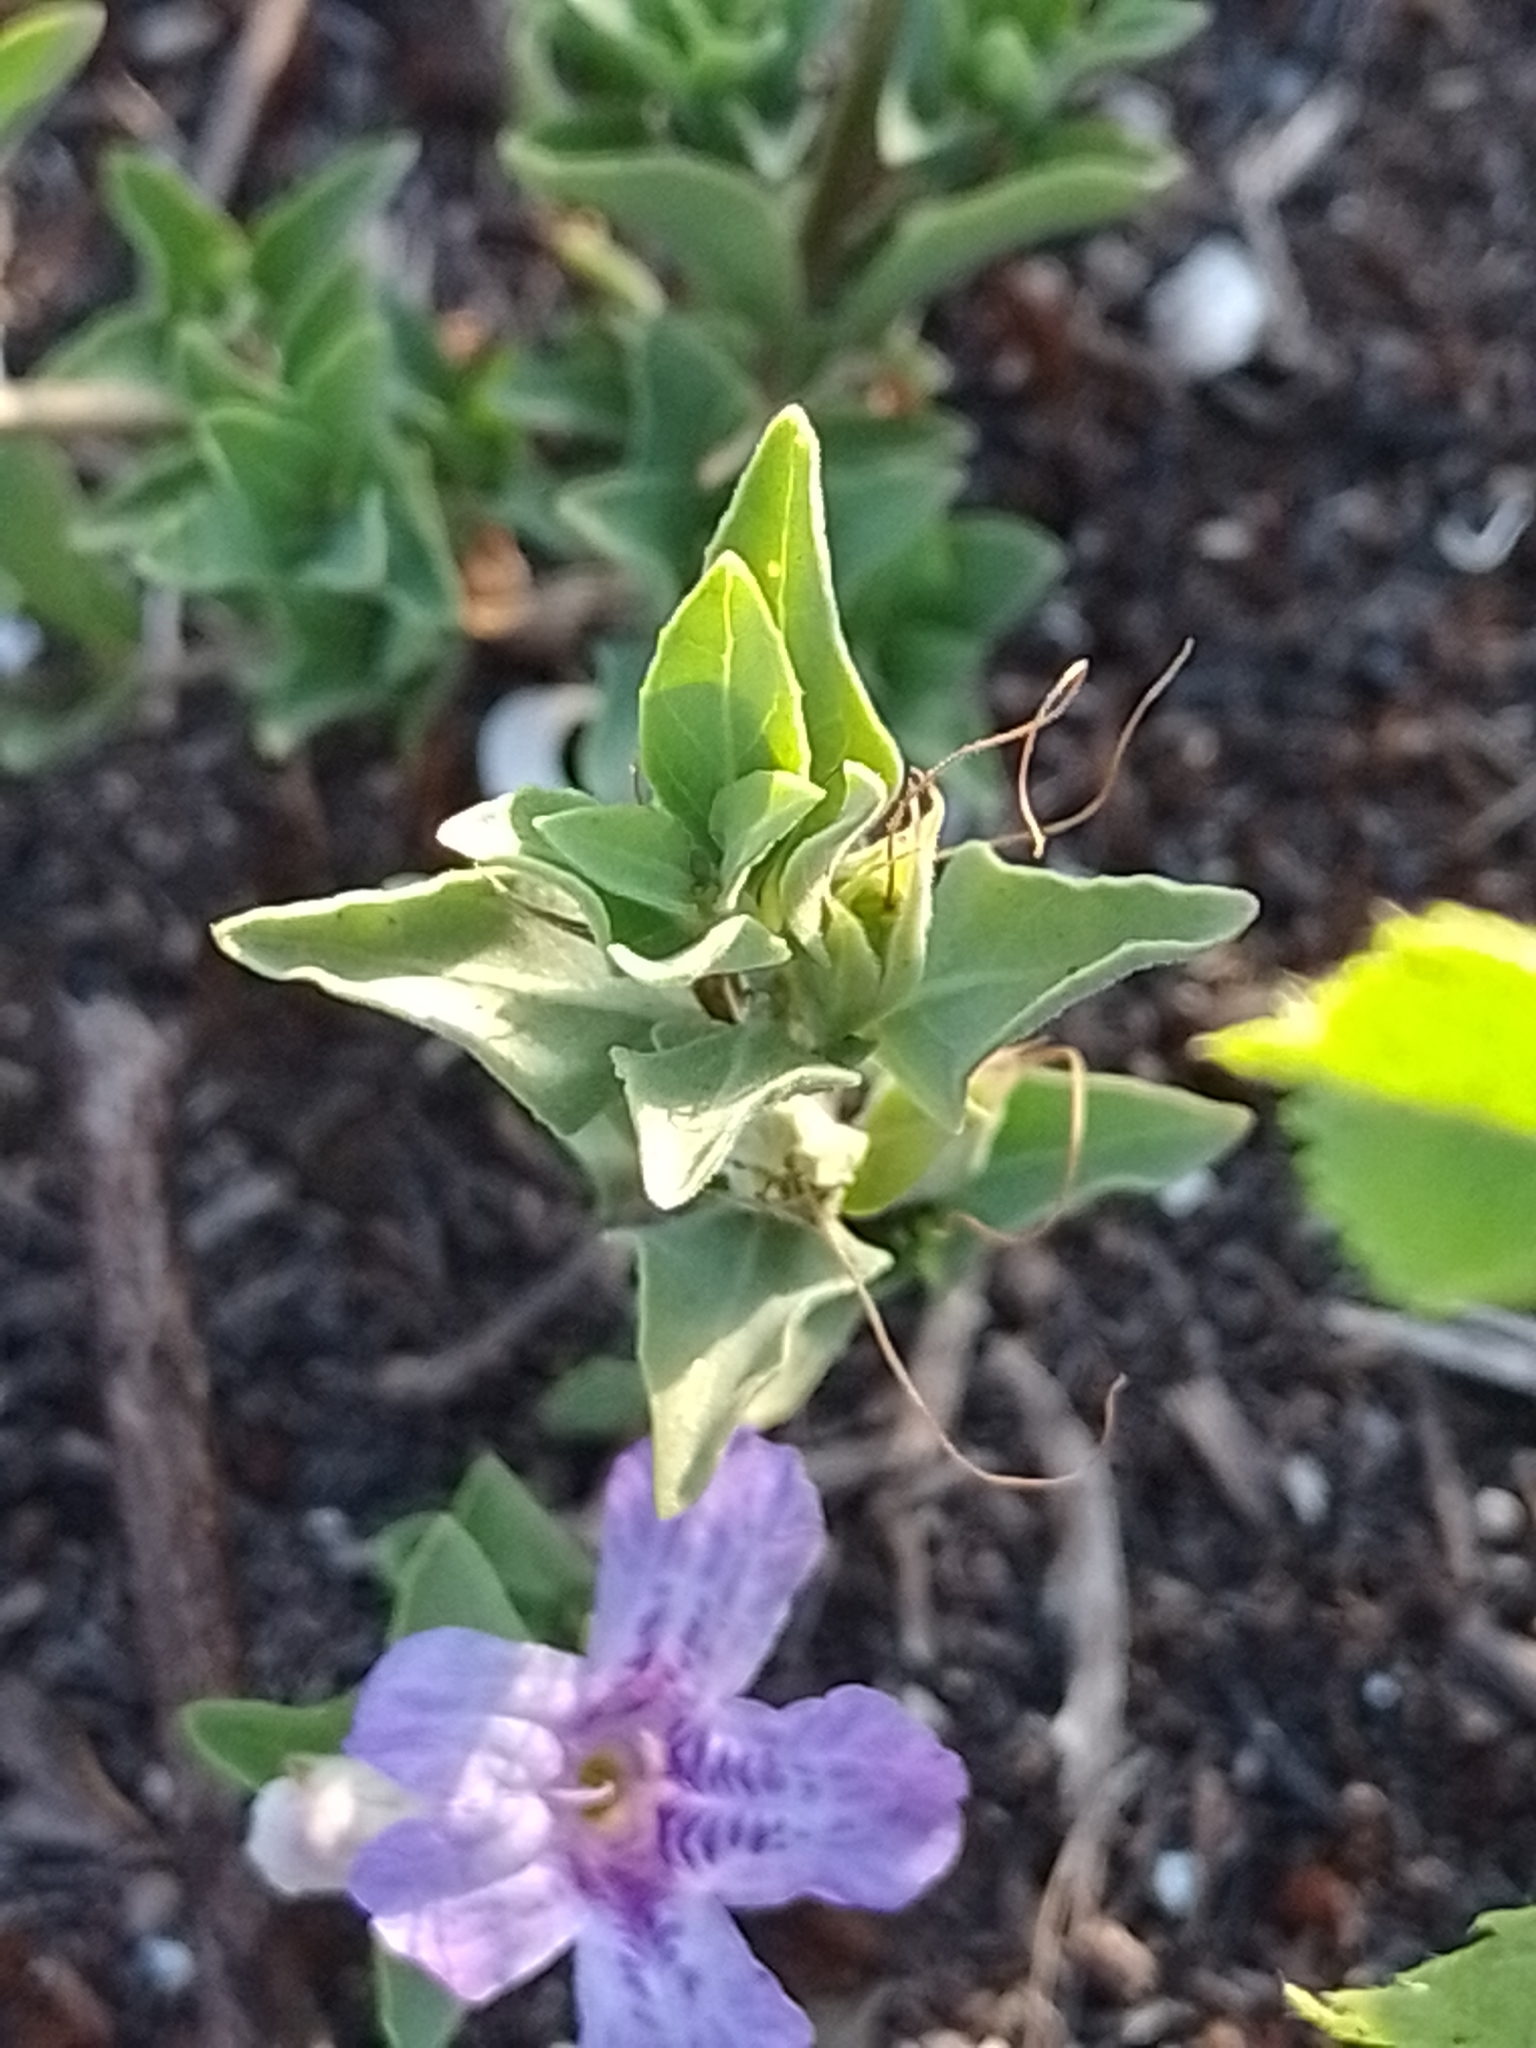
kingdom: Plantae
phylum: Tracheophyta
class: Magnoliopsida
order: Lamiales
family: Acanthaceae
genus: Dyschoriste
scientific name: Dyschoriste humilis
